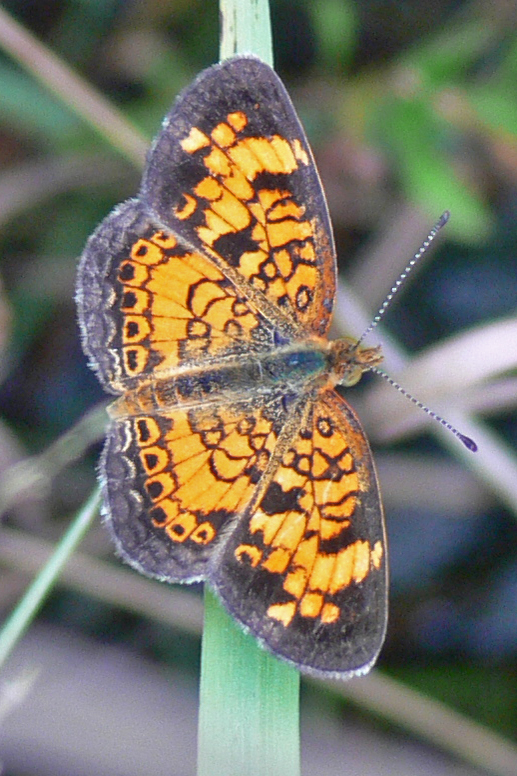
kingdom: Animalia
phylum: Arthropoda
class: Insecta
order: Lepidoptera
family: Nymphalidae
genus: Phyciodes
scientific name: Phyciodes tharos
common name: Pearl crescent
